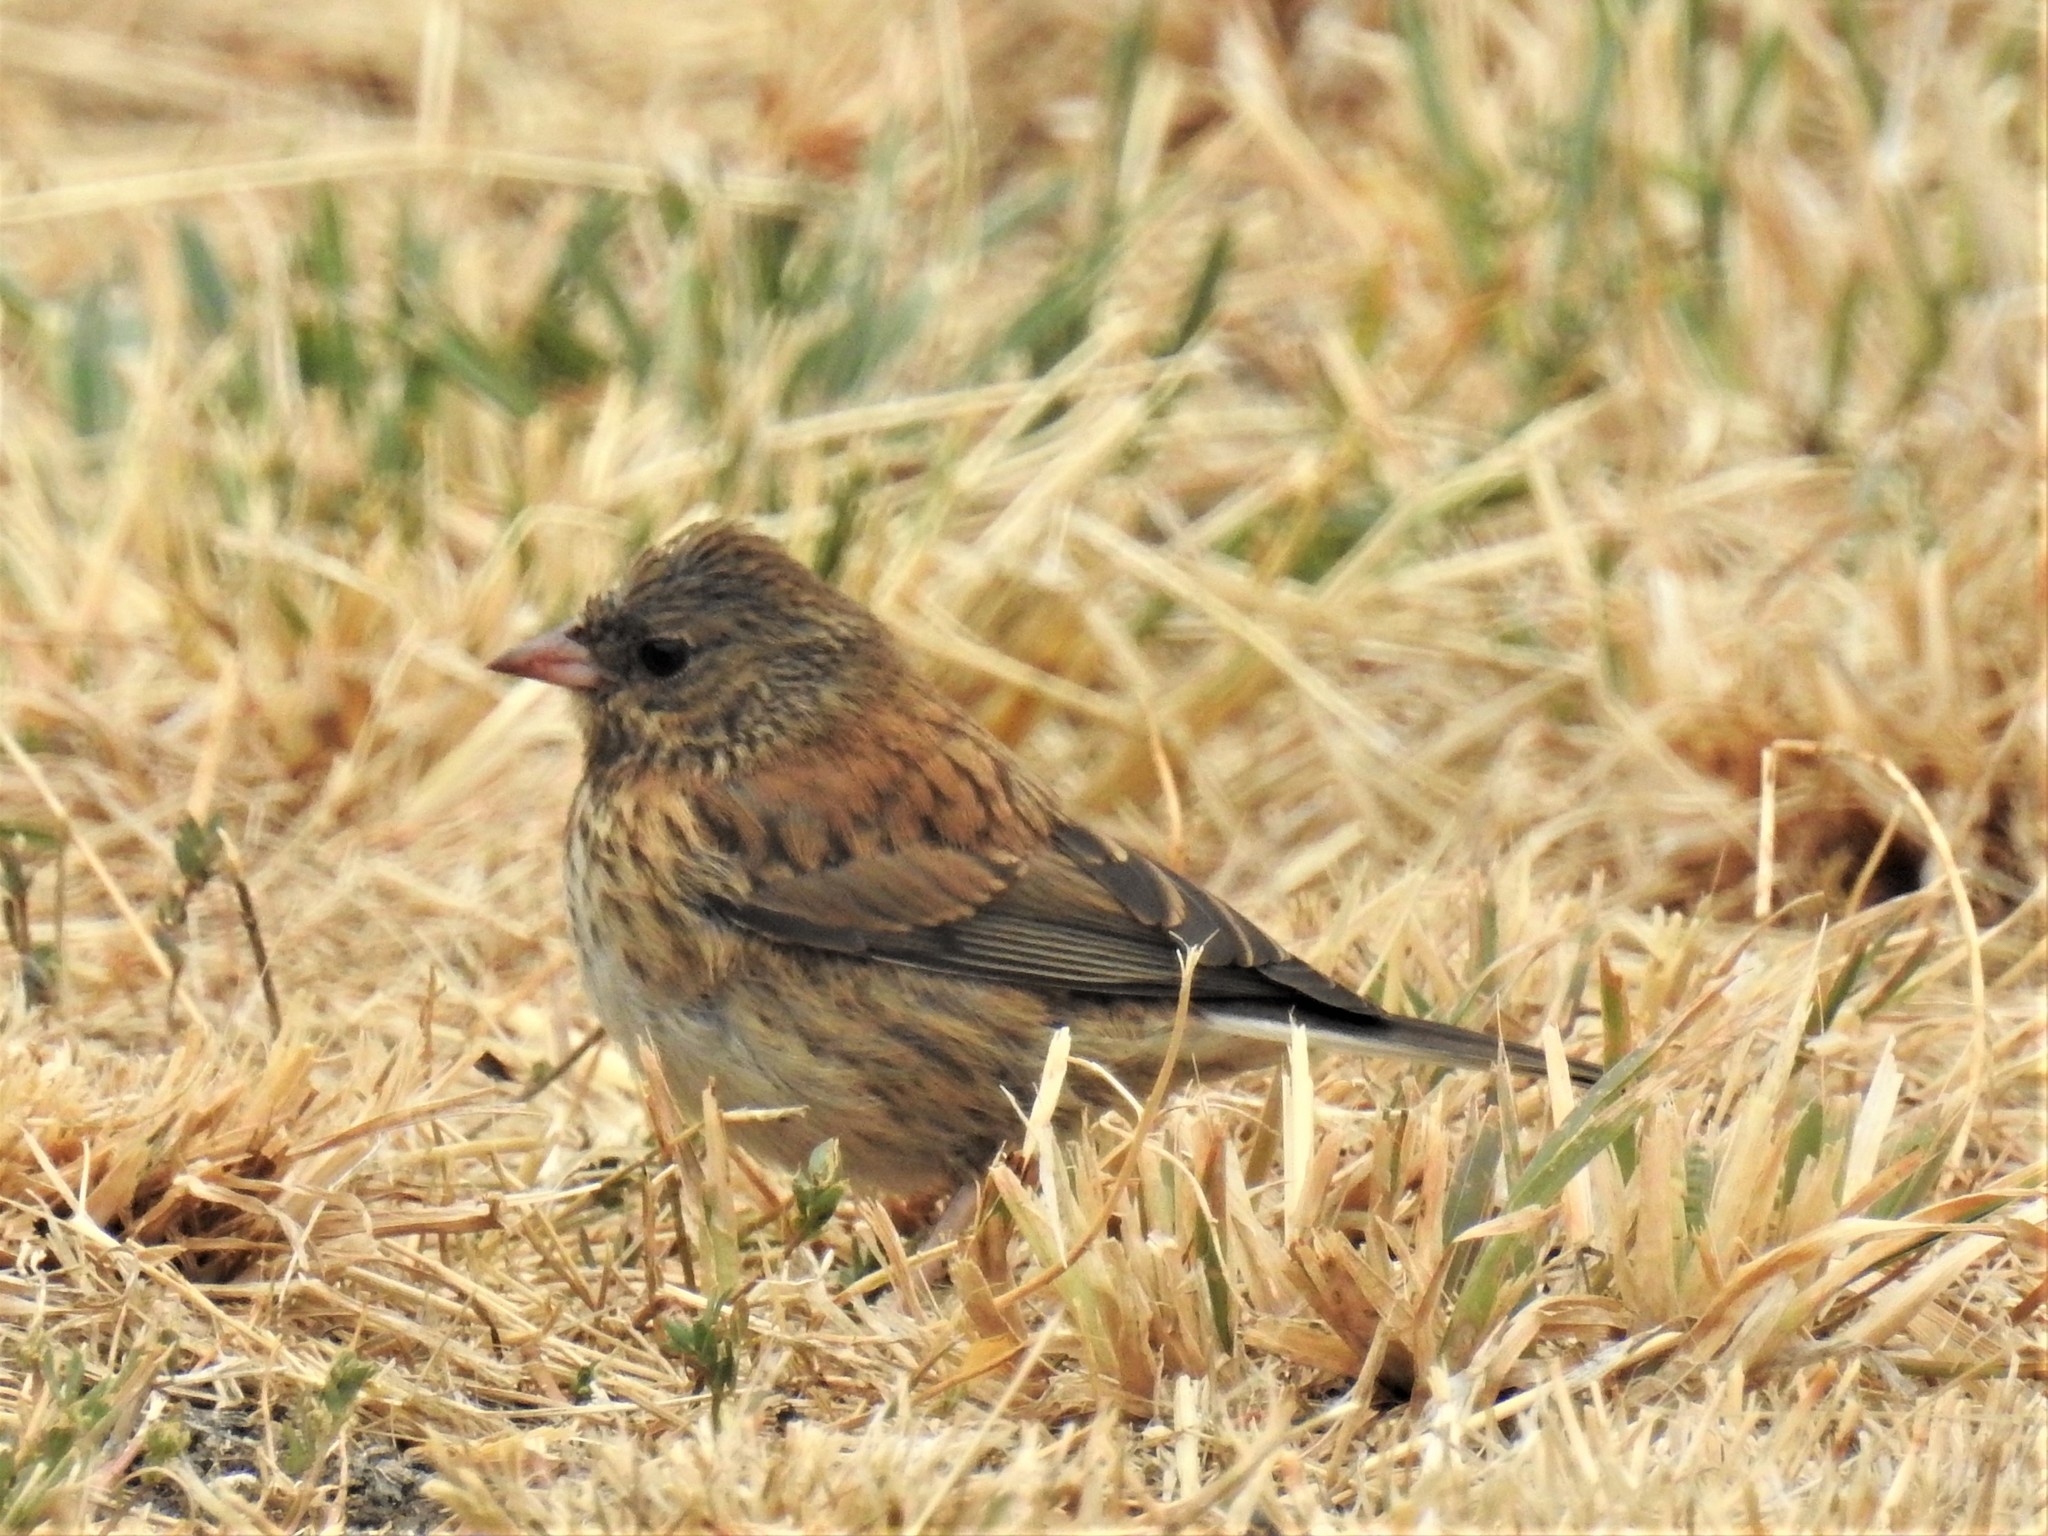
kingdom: Animalia
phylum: Chordata
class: Aves
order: Passeriformes
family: Passerellidae
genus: Junco
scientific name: Junco hyemalis
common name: Dark-eyed junco
